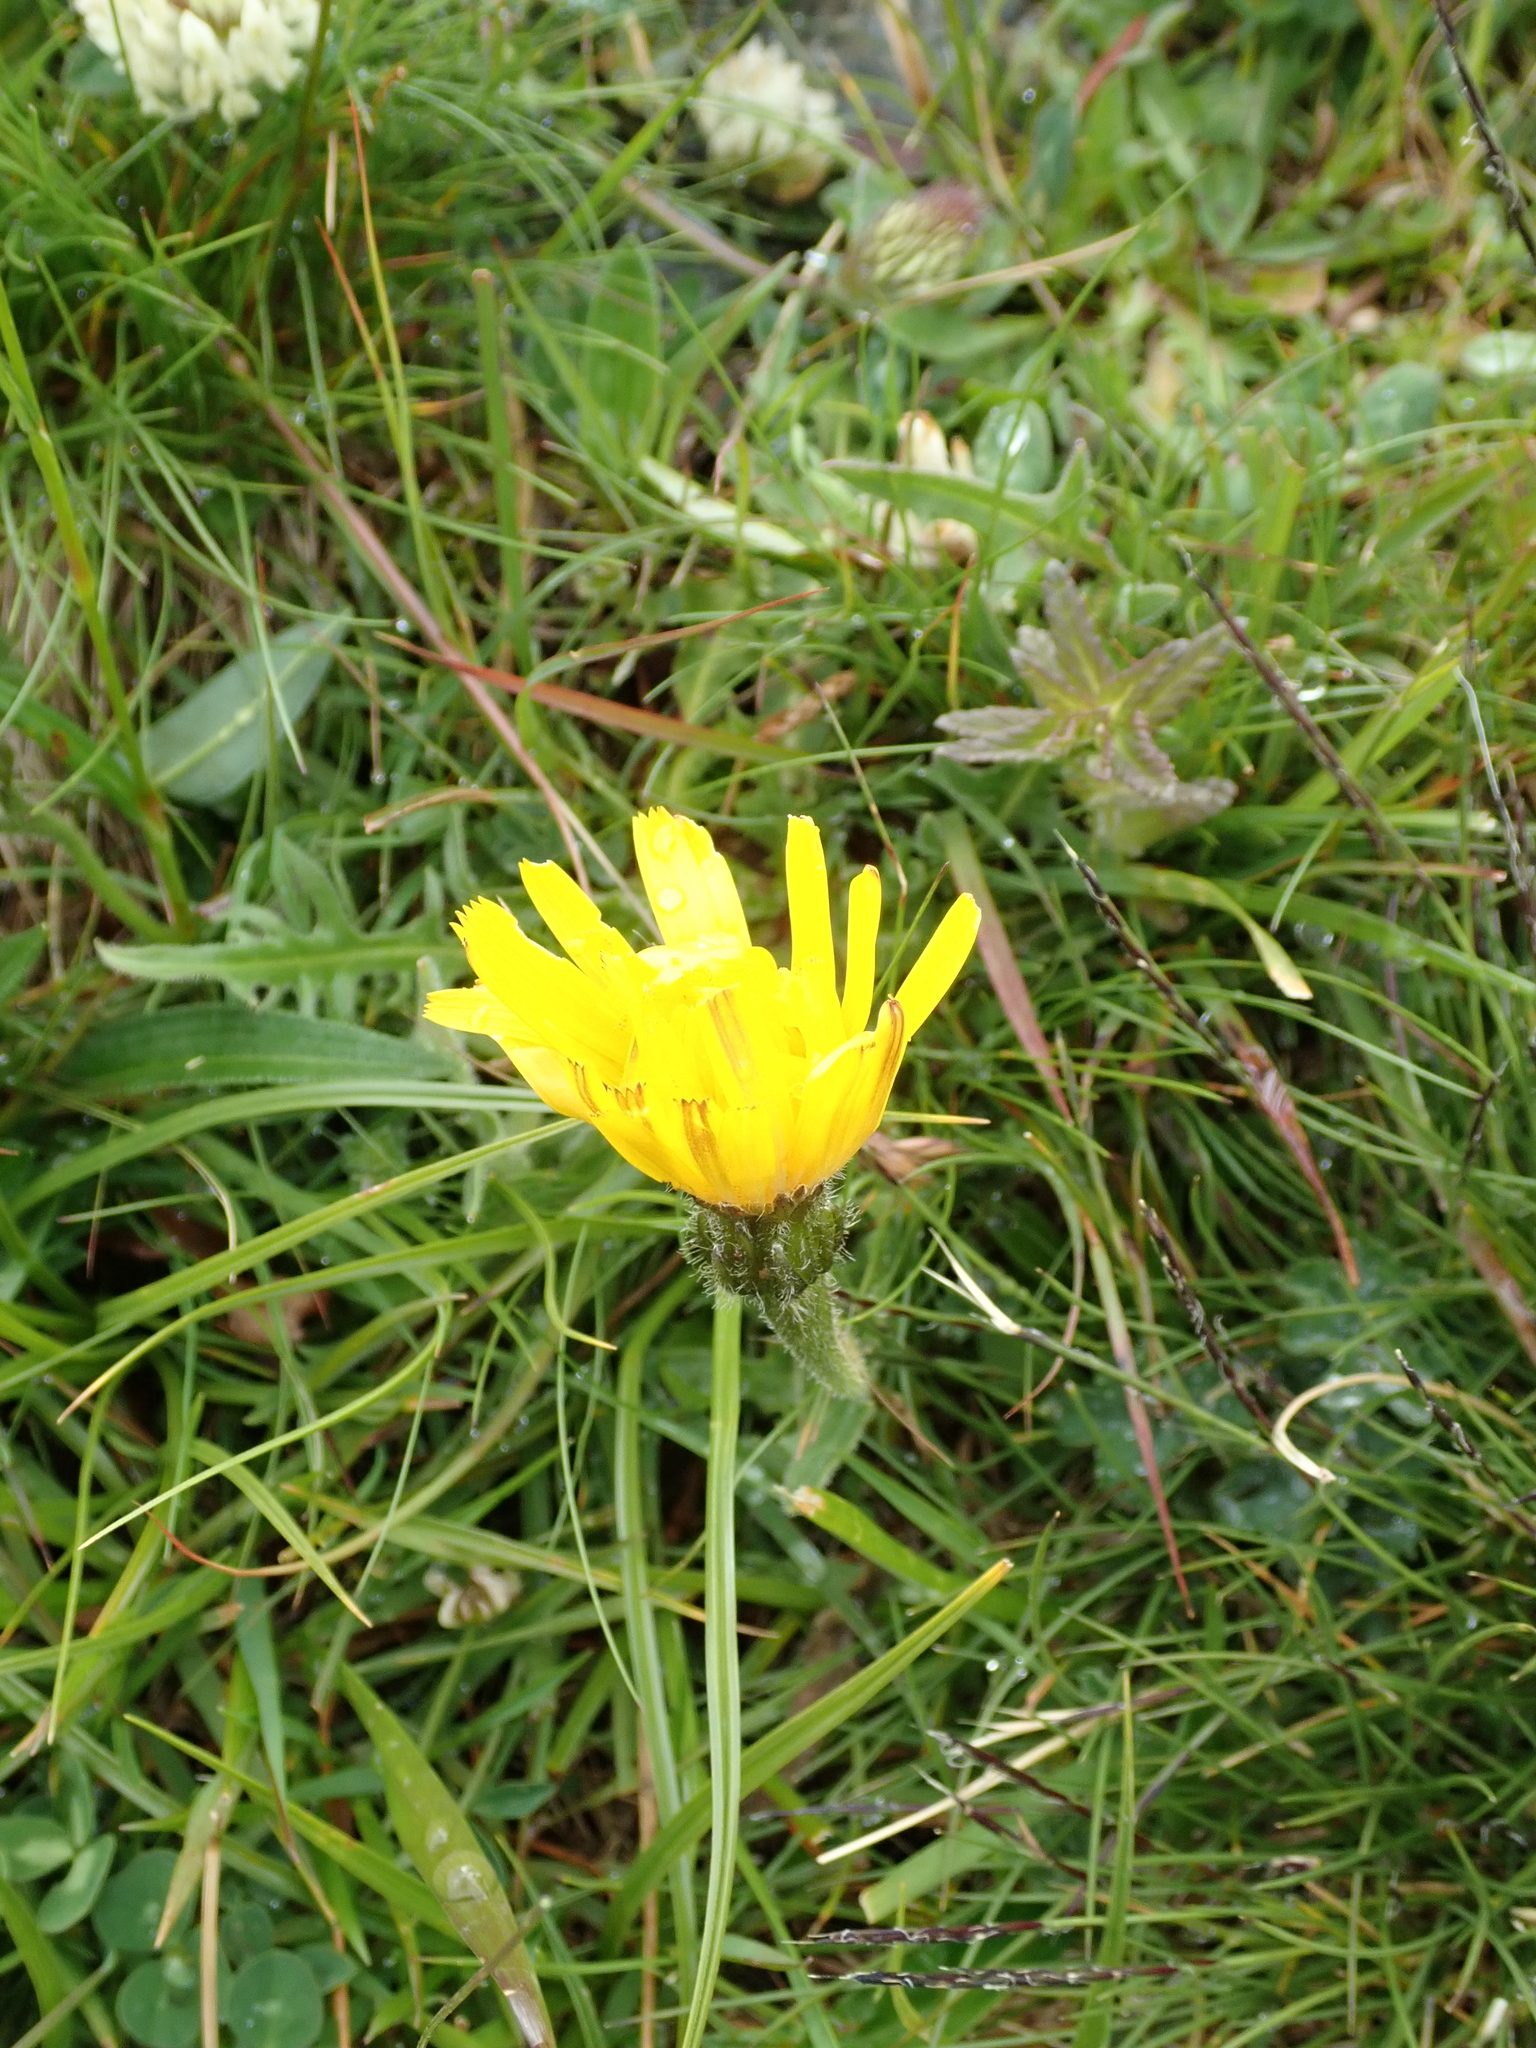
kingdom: Plantae
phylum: Tracheophyta
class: Magnoliopsida
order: Asterales
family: Asteraceae
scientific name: Asteraceae
